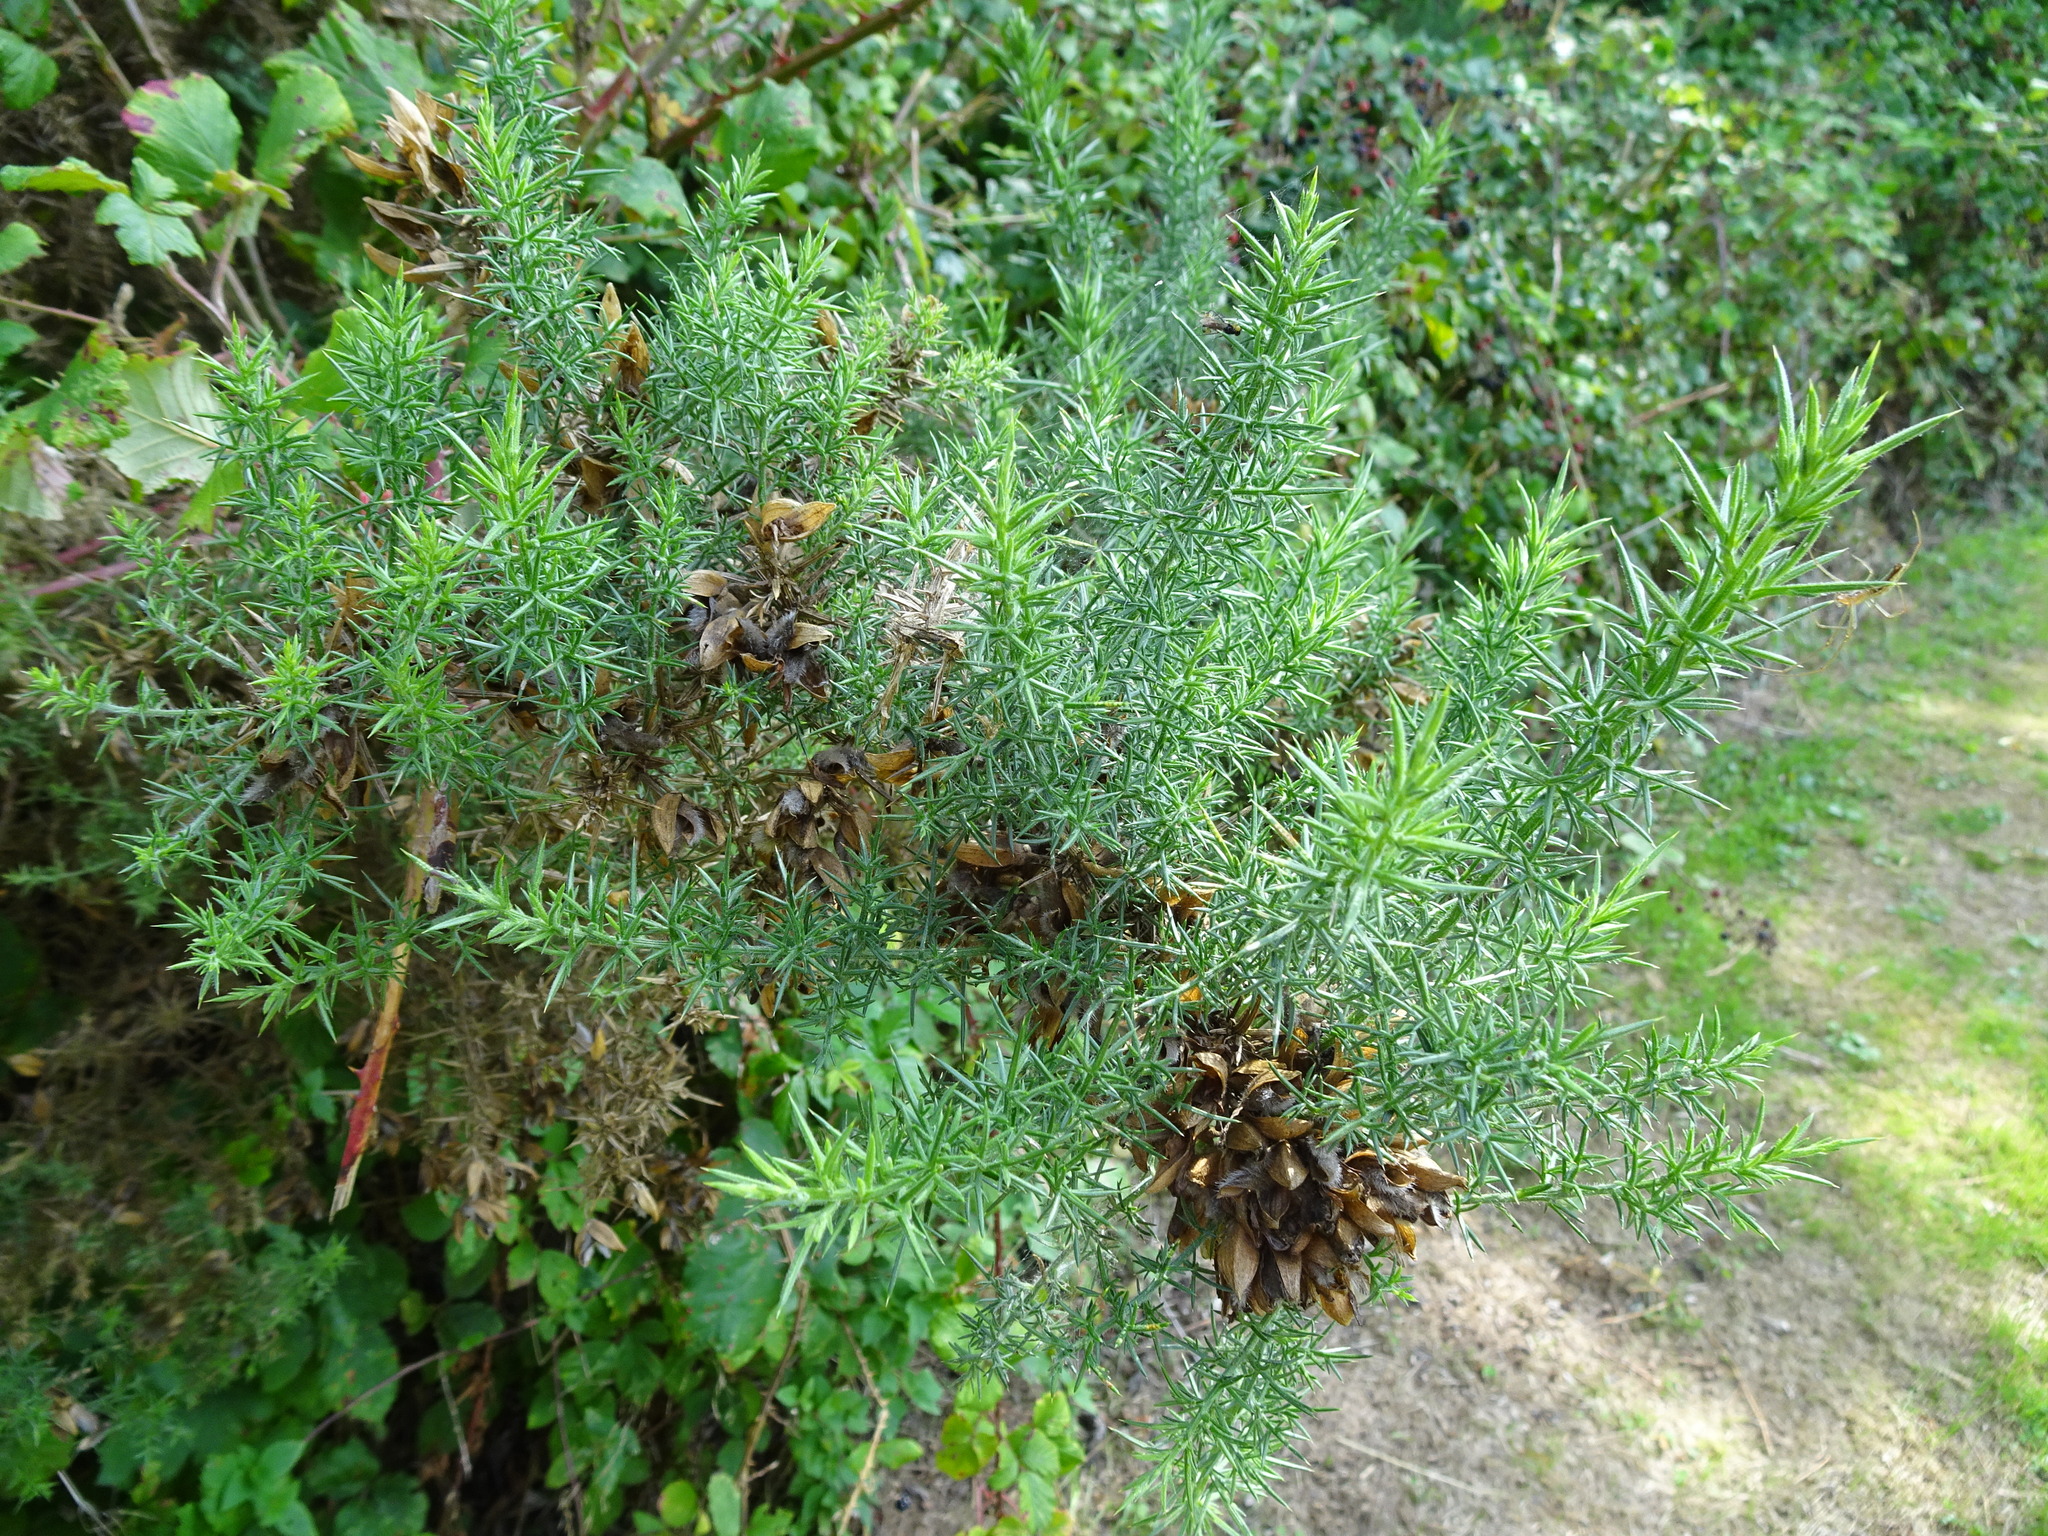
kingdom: Plantae
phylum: Tracheophyta
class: Magnoliopsida
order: Fabales
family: Fabaceae
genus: Ulex
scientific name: Ulex europaeus
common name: Common gorse
